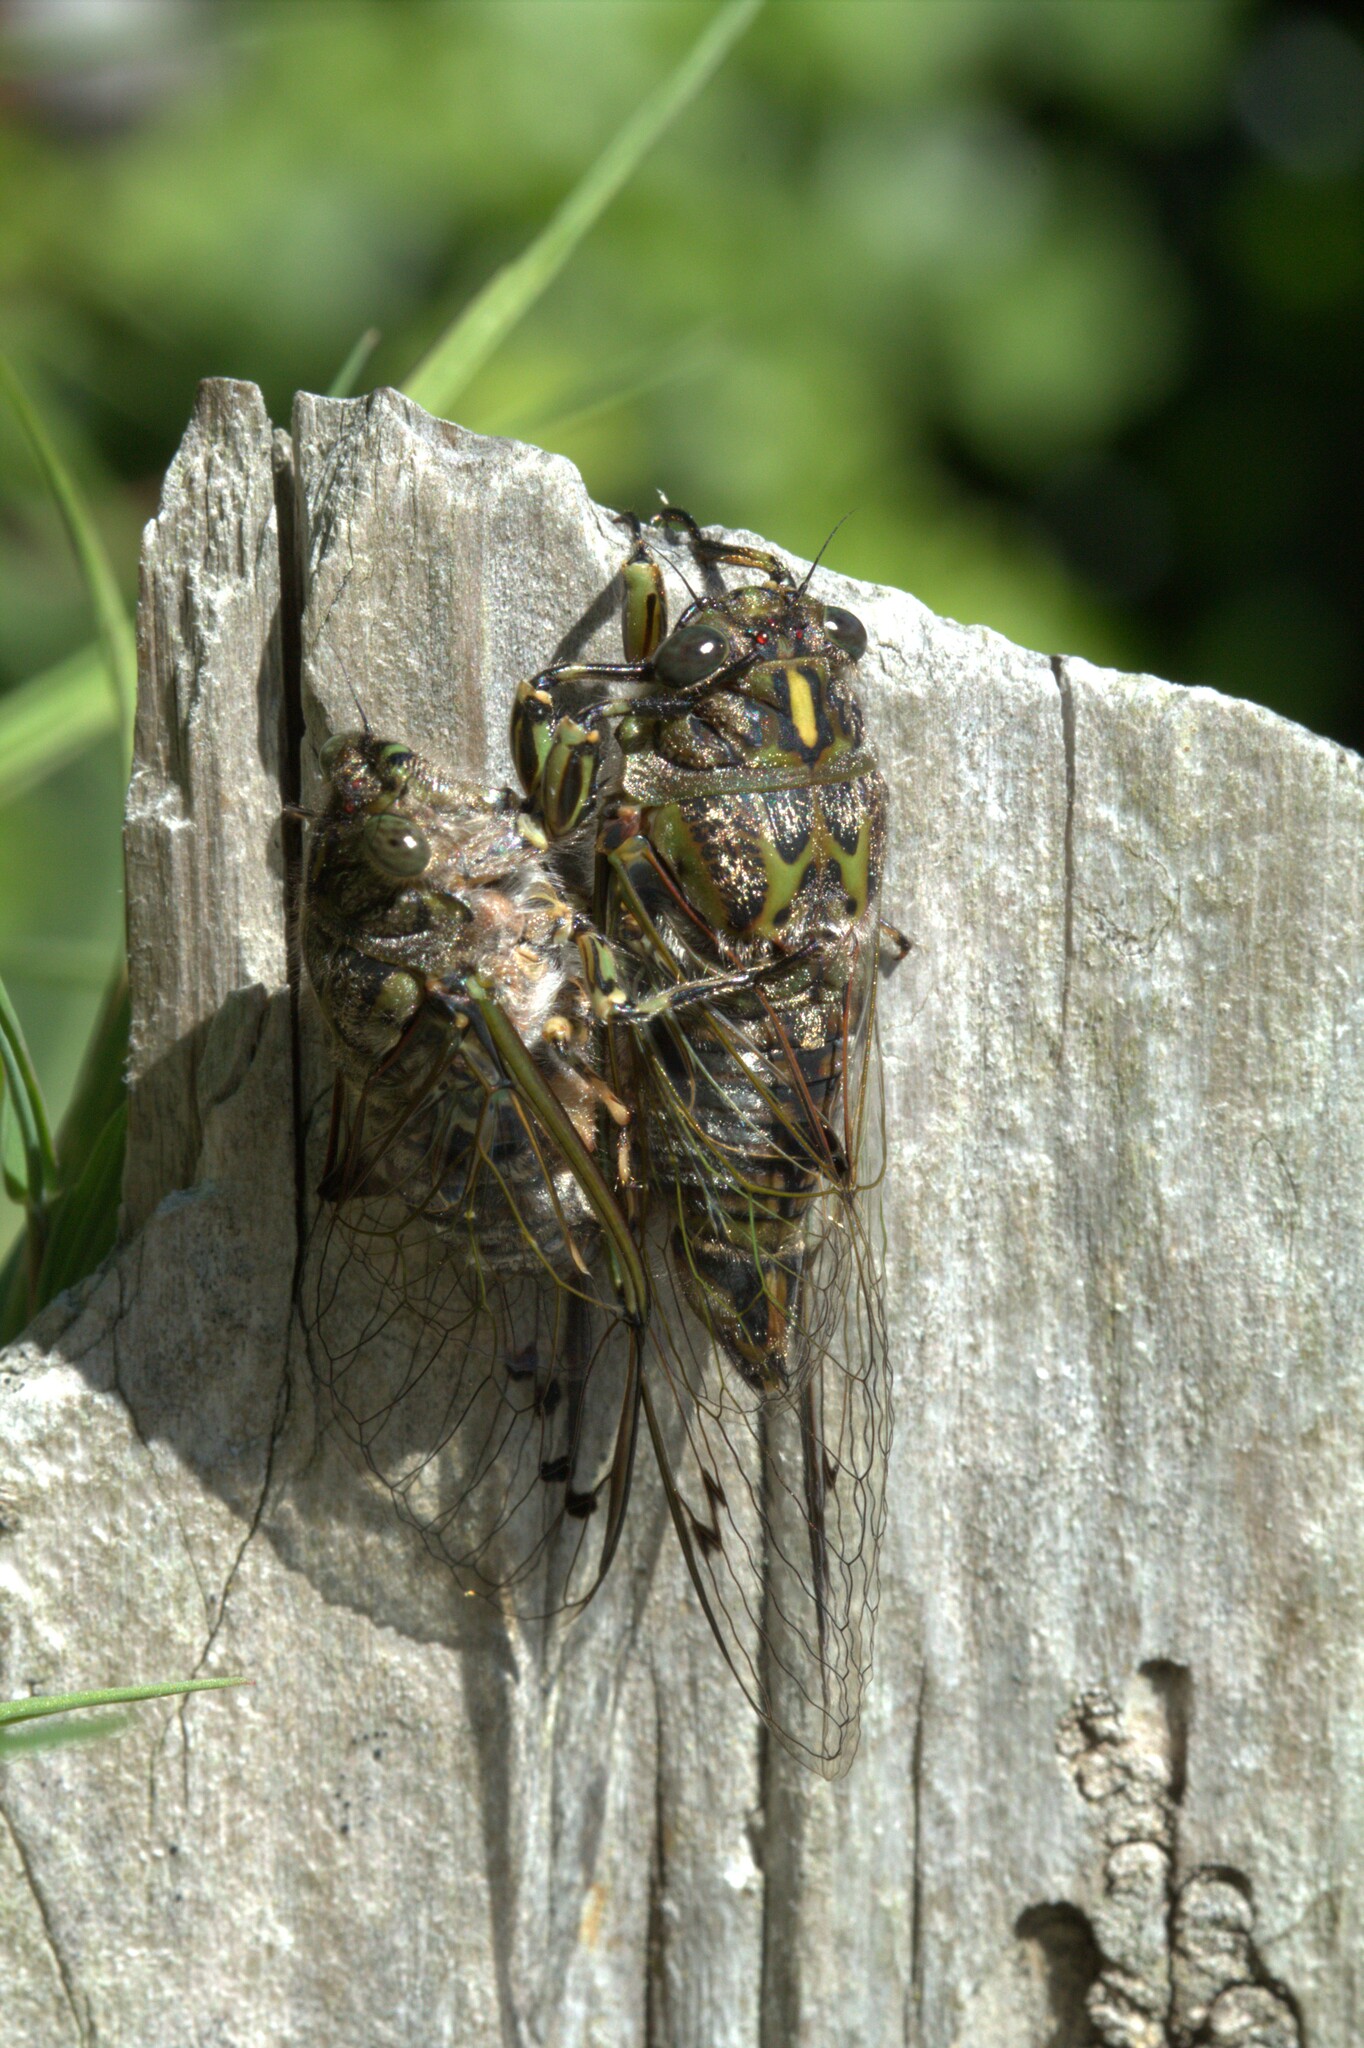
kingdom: Animalia
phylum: Arthropoda
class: Insecta
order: Hemiptera
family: Cicadidae
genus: Amphipsalta
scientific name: Amphipsalta cingulata
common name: Clapping cicada
